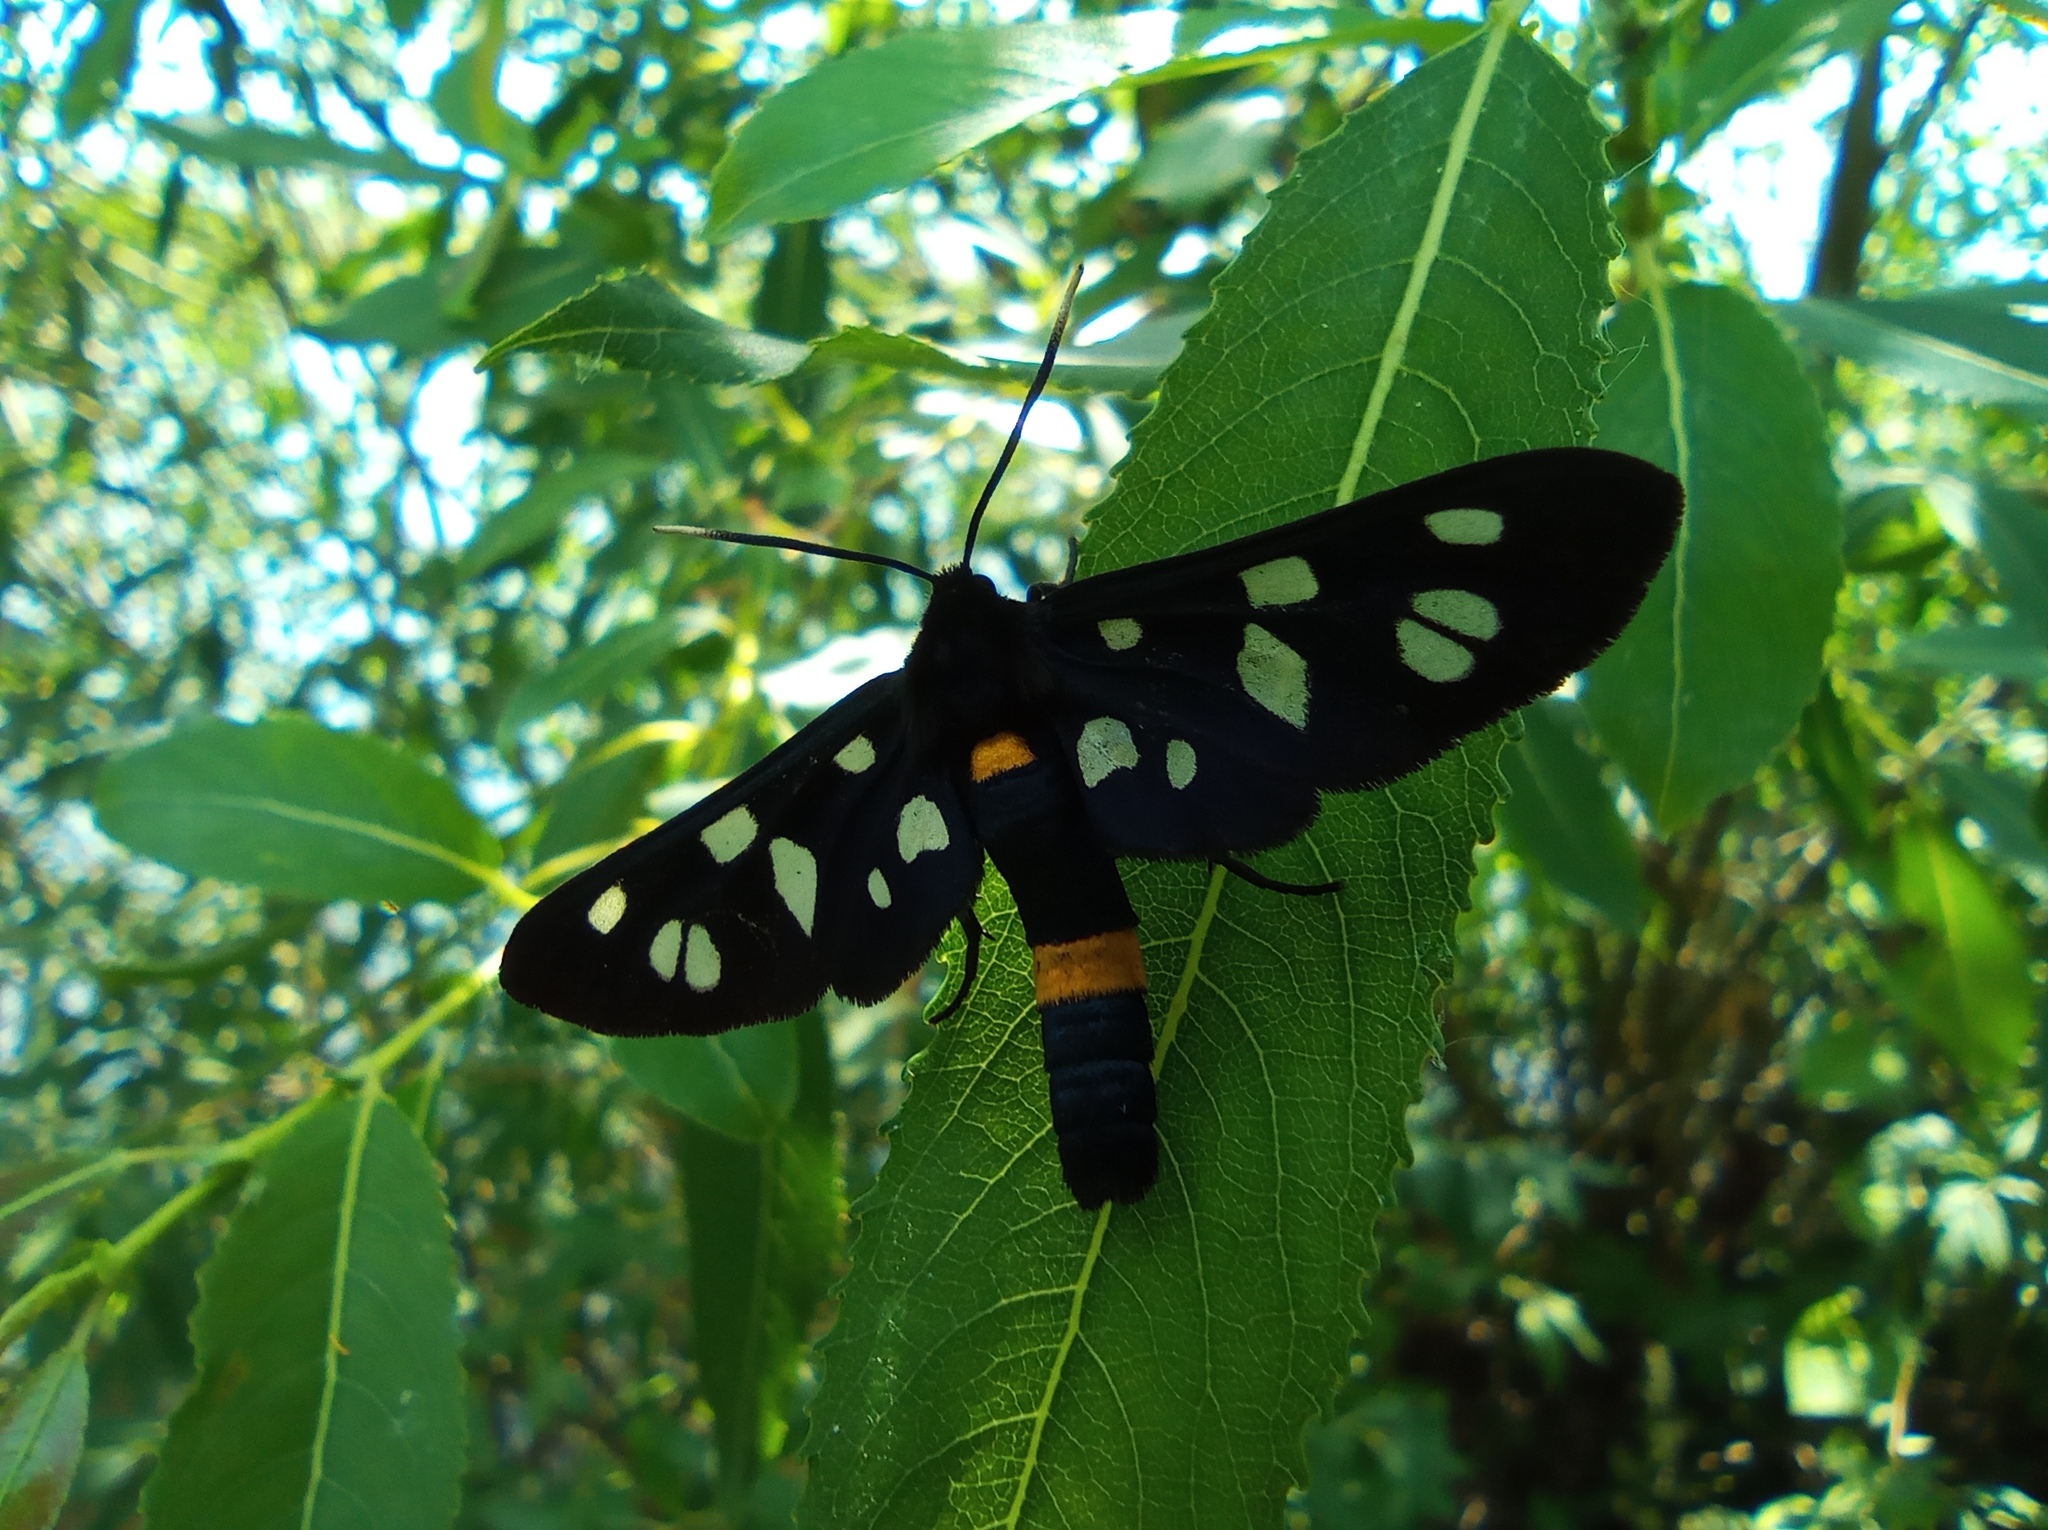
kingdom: Animalia
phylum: Arthropoda
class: Insecta
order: Lepidoptera
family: Erebidae
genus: Amata
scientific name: Amata nigricornis
